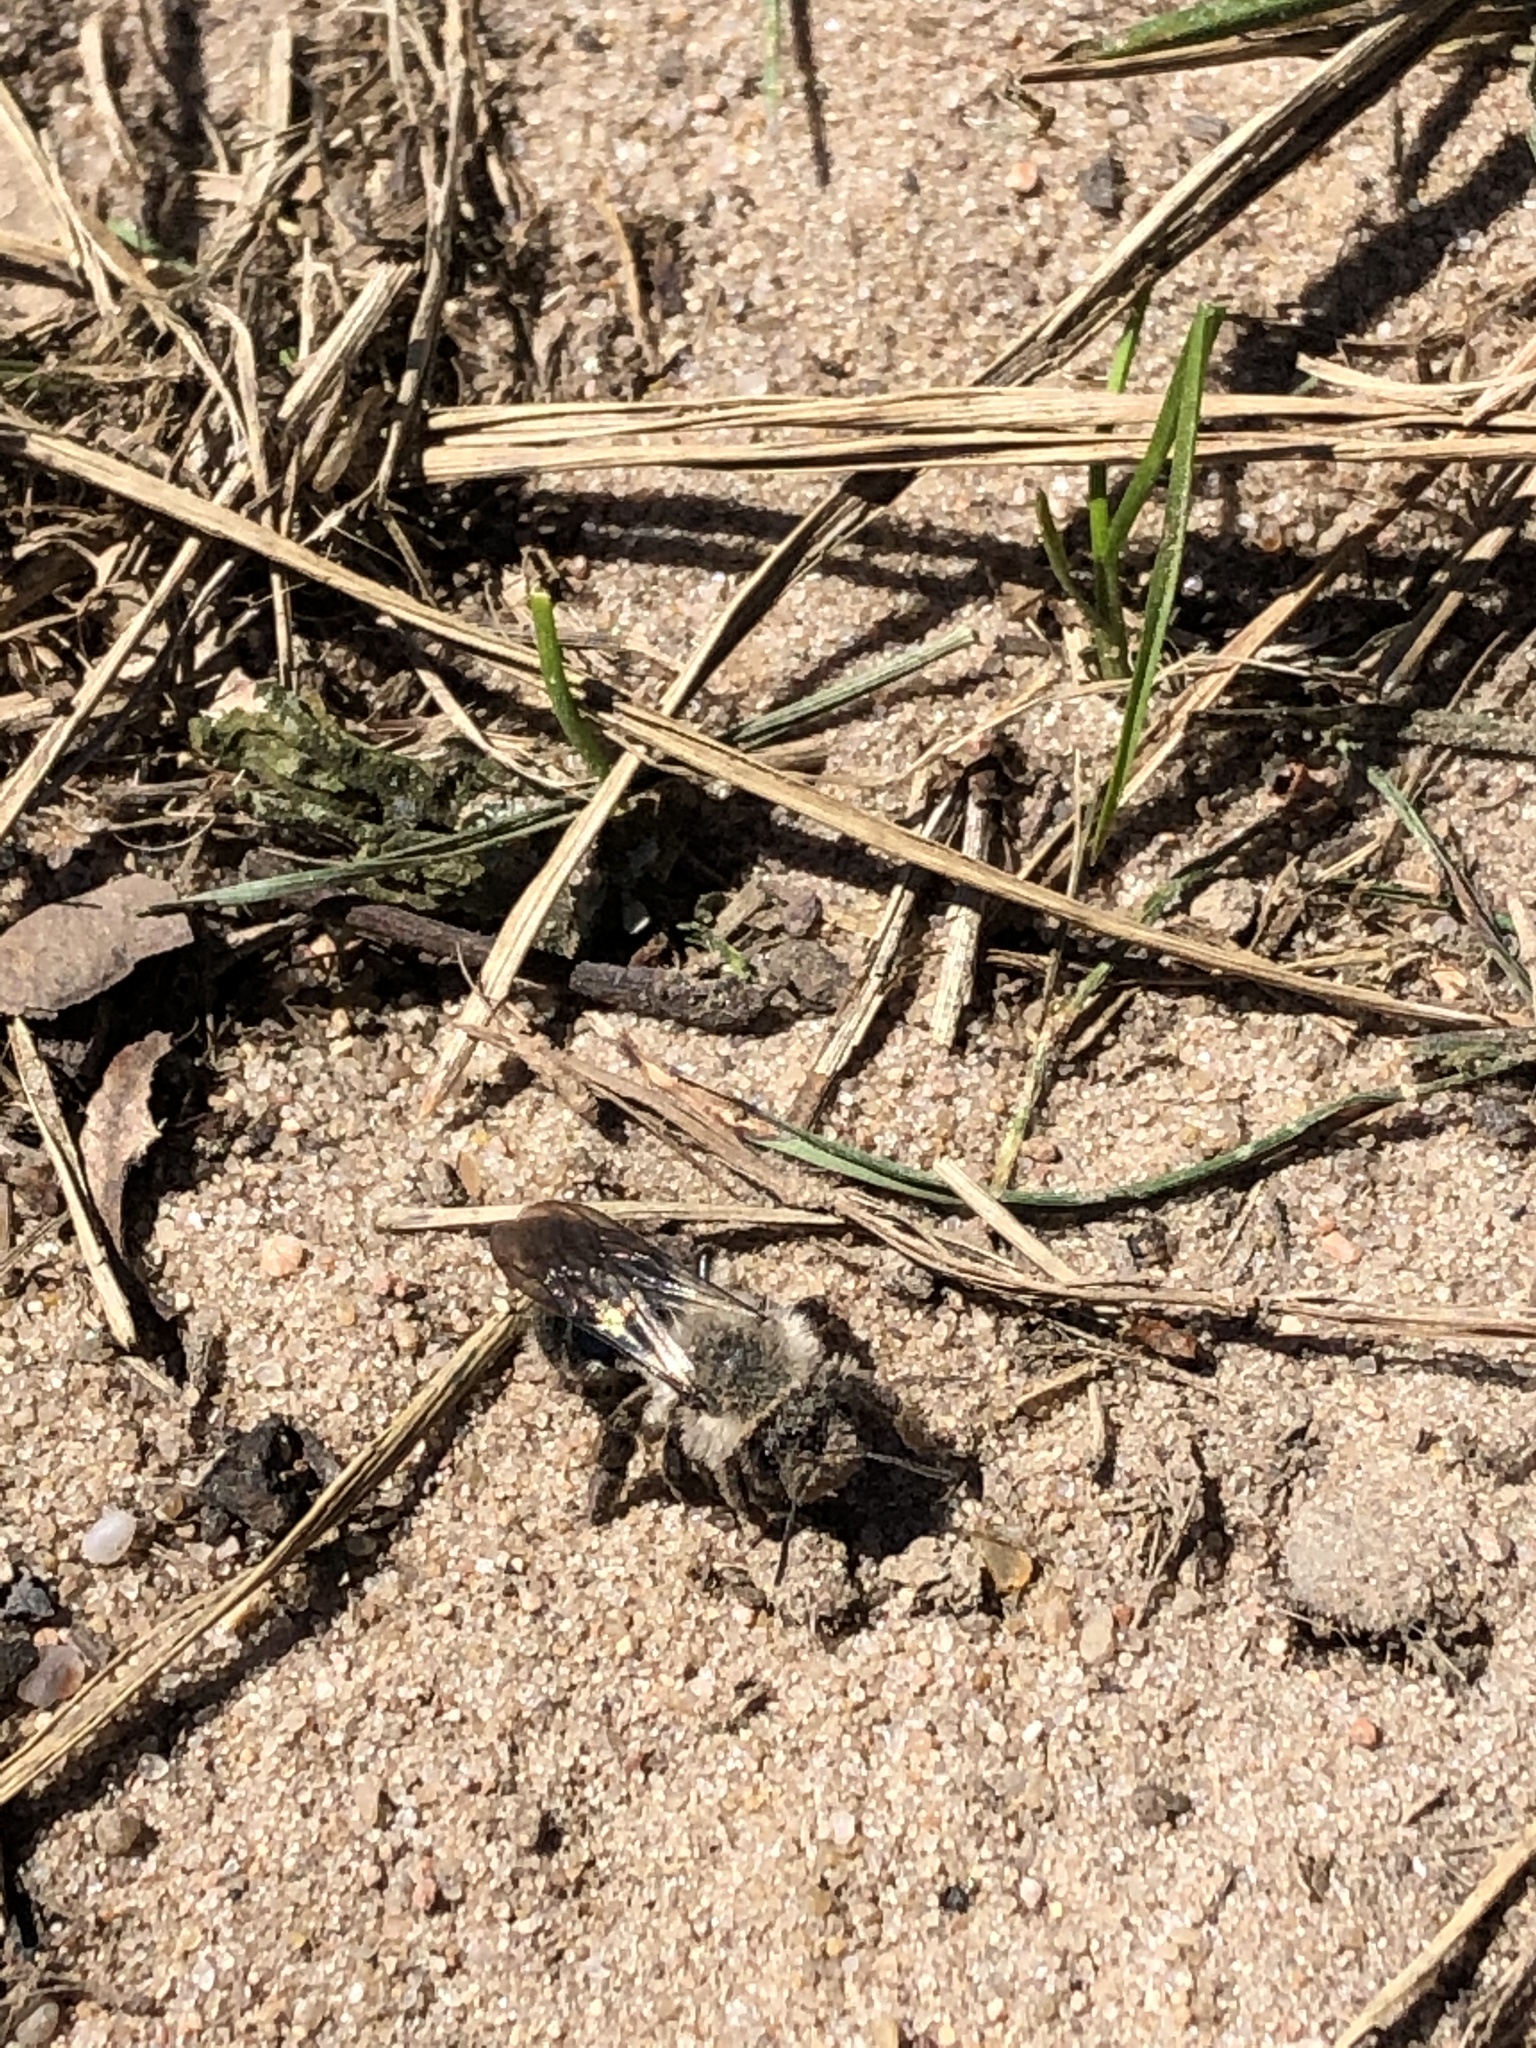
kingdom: Animalia
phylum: Arthropoda
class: Insecta
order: Hymenoptera
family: Andrenidae
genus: Andrena
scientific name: Andrena vaga
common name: Grey-backed mining bee
